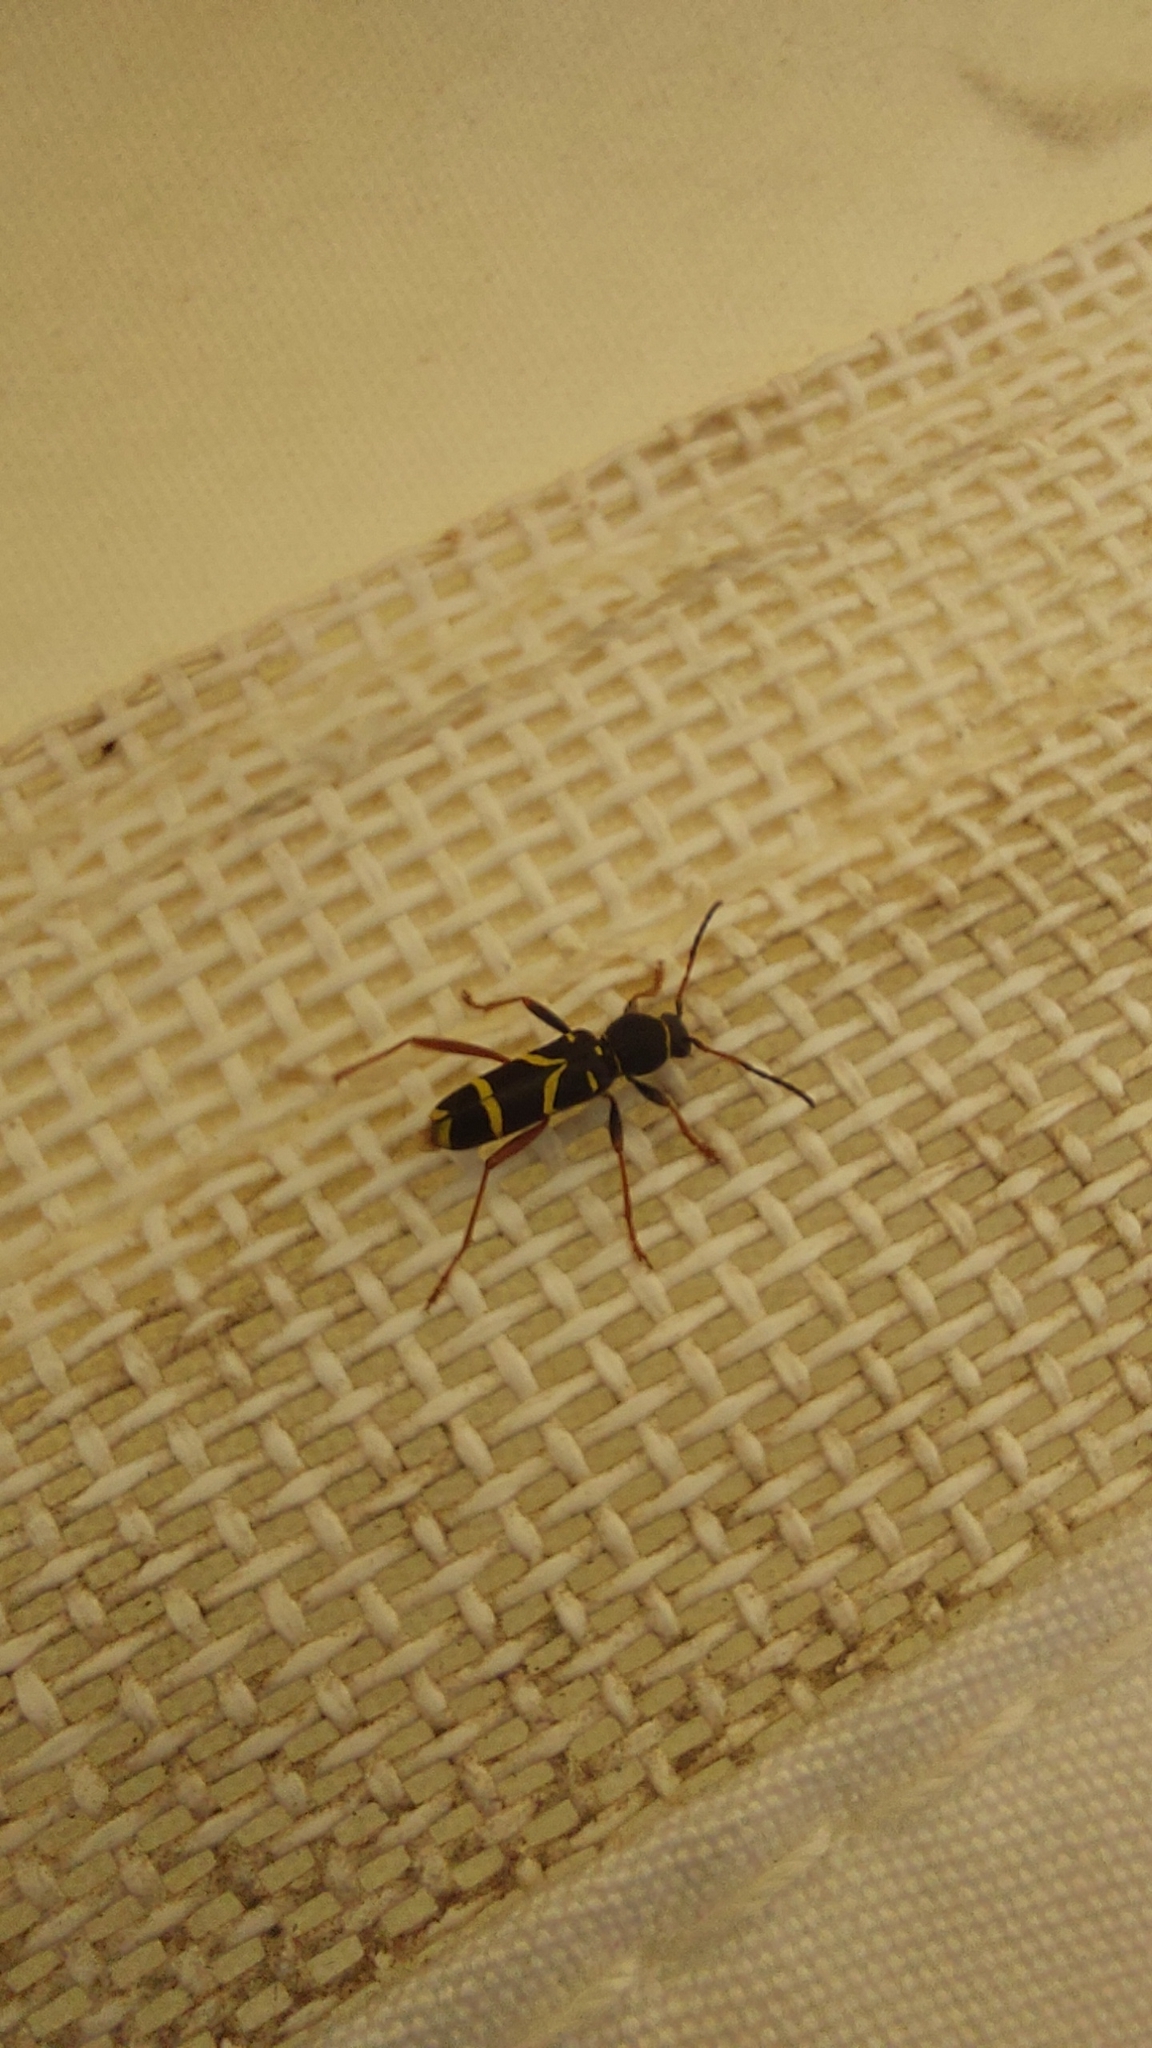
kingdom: Animalia
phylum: Arthropoda
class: Insecta
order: Coleoptera
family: Cerambycidae
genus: Clytus
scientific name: Clytus arietis
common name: Wasp beetle
